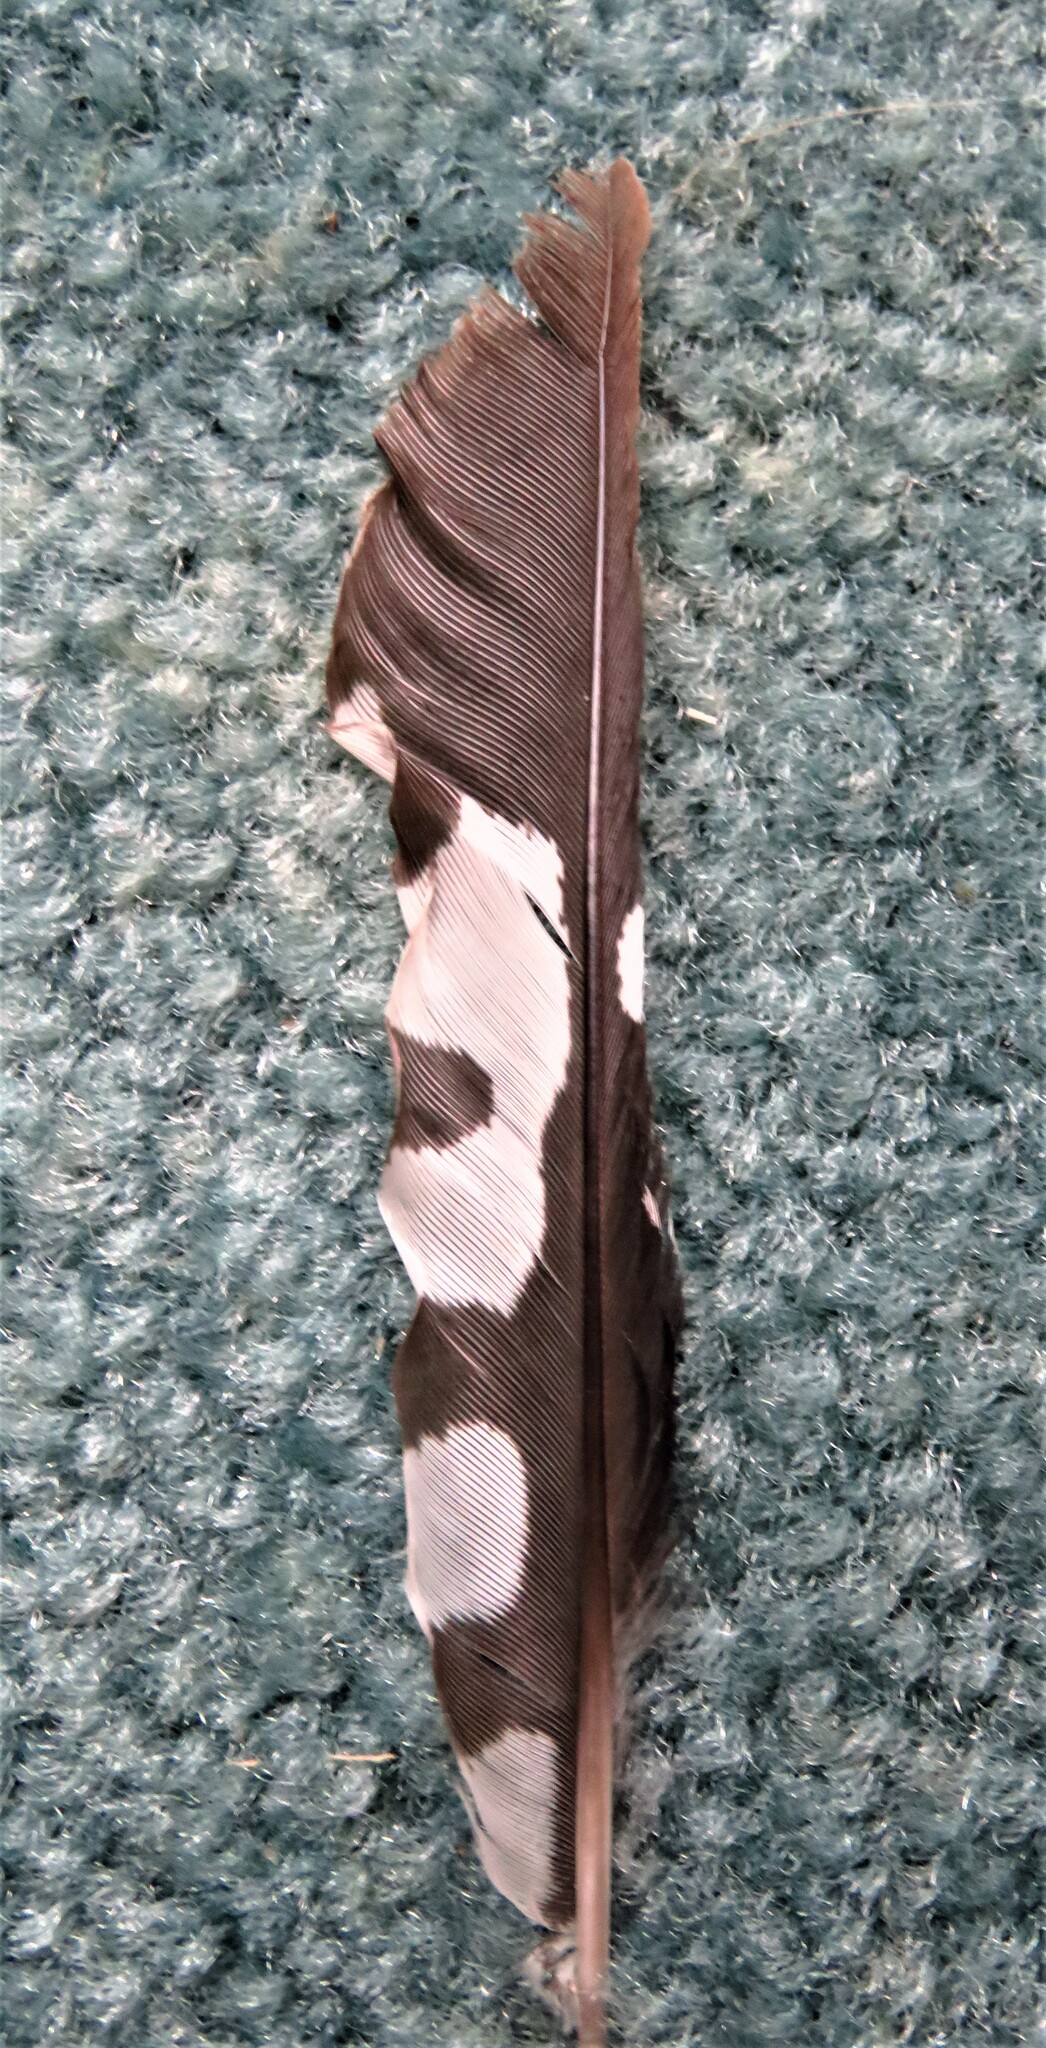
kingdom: Animalia
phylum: Chordata
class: Aves
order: Piciformes
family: Picidae
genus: Melanerpes
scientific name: Melanerpes carolinus
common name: Red-bellied woodpecker
